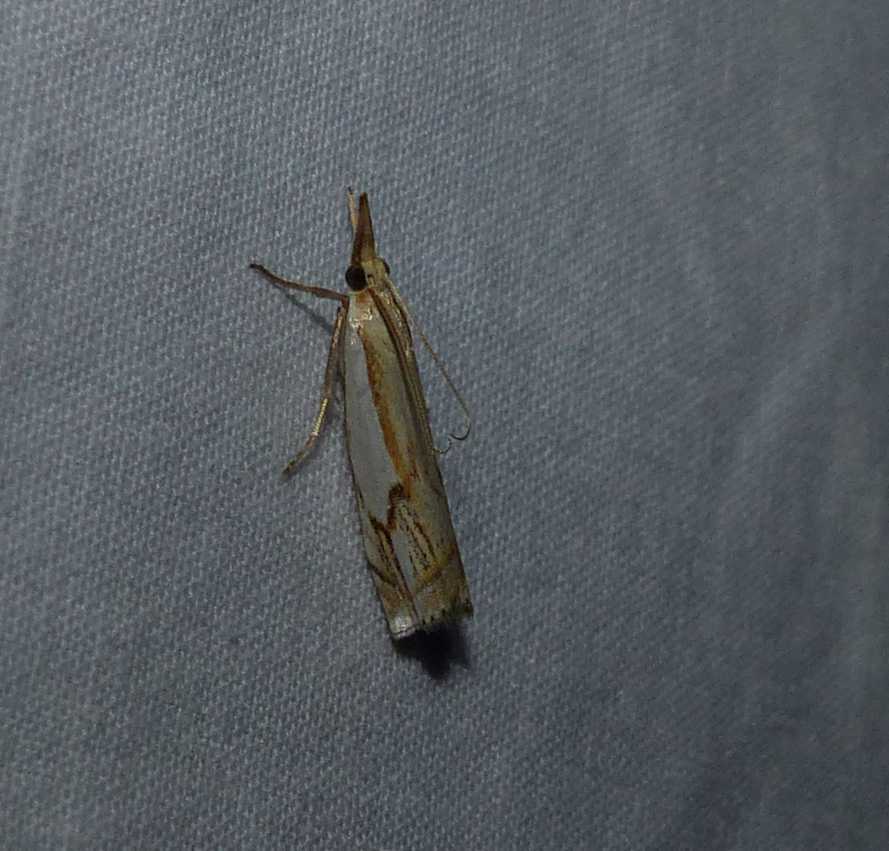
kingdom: Animalia
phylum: Arthropoda
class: Insecta
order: Lepidoptera
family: Crambidae
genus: Crambus
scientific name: Crambus agitatellus
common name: Double-banded grass-veneer
